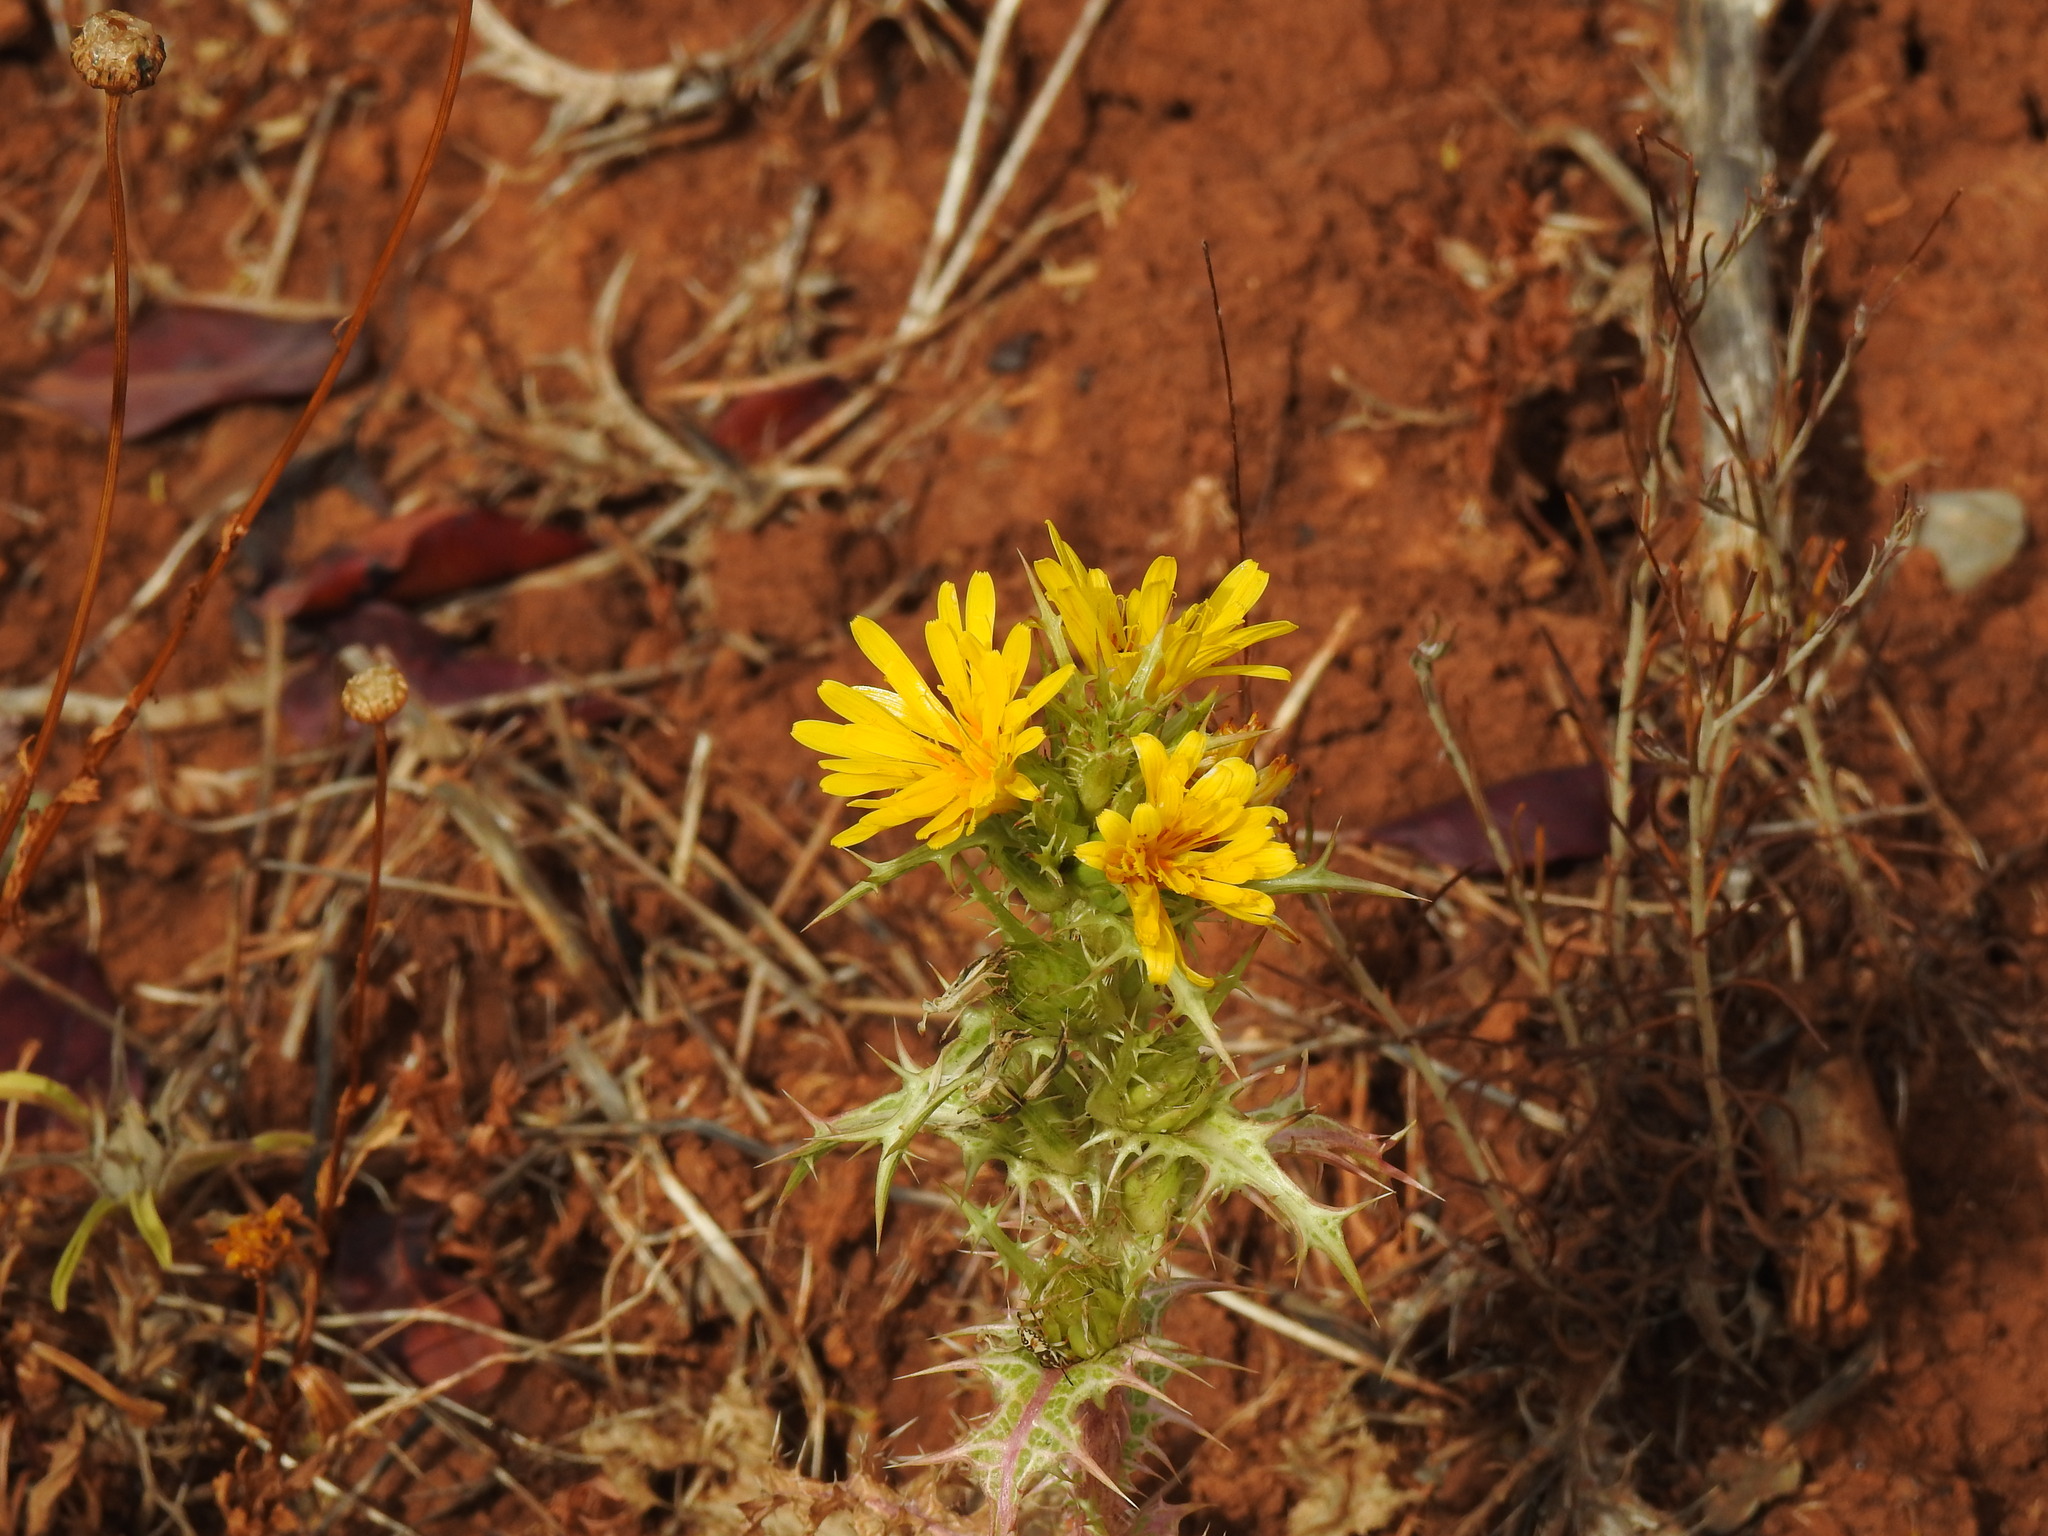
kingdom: Plantae
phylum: Tracheophyta
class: Magnoliopsida
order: Asterales
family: Asteraceae
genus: Scolymus
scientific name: Scolymus hispanicus
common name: Golden thistle
